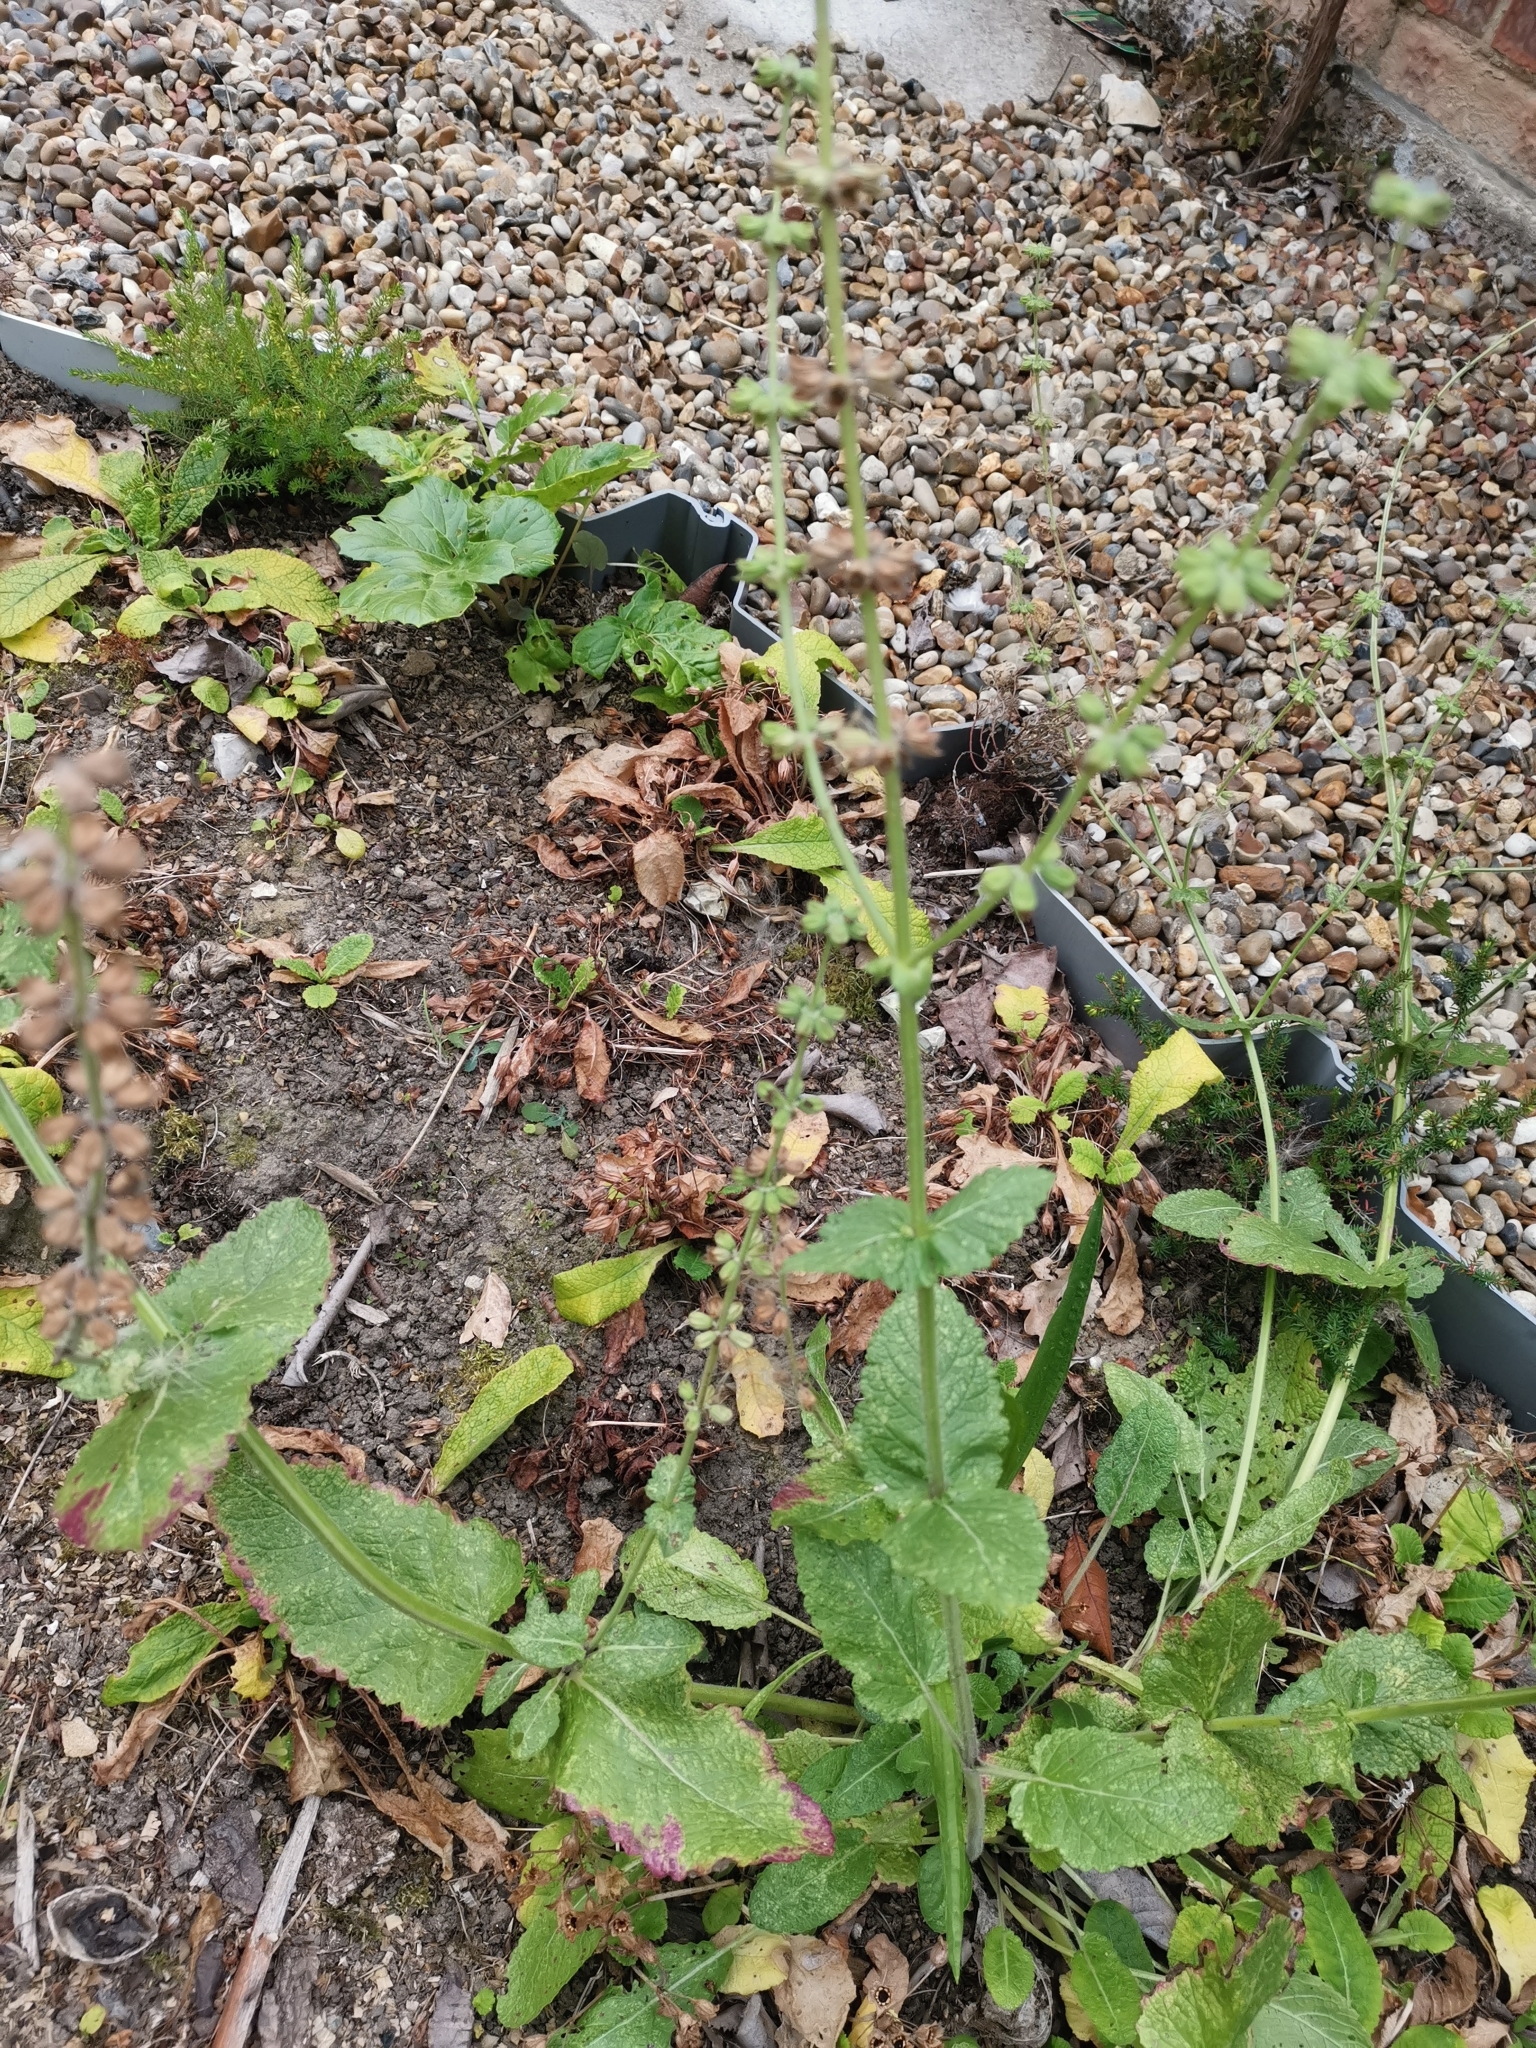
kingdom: Plantae
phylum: Tracheophyta
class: Magnoliopsida
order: Lamiales
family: Lamiaceae
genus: Salvia
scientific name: Salvia verbenaca
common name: Wild clary
